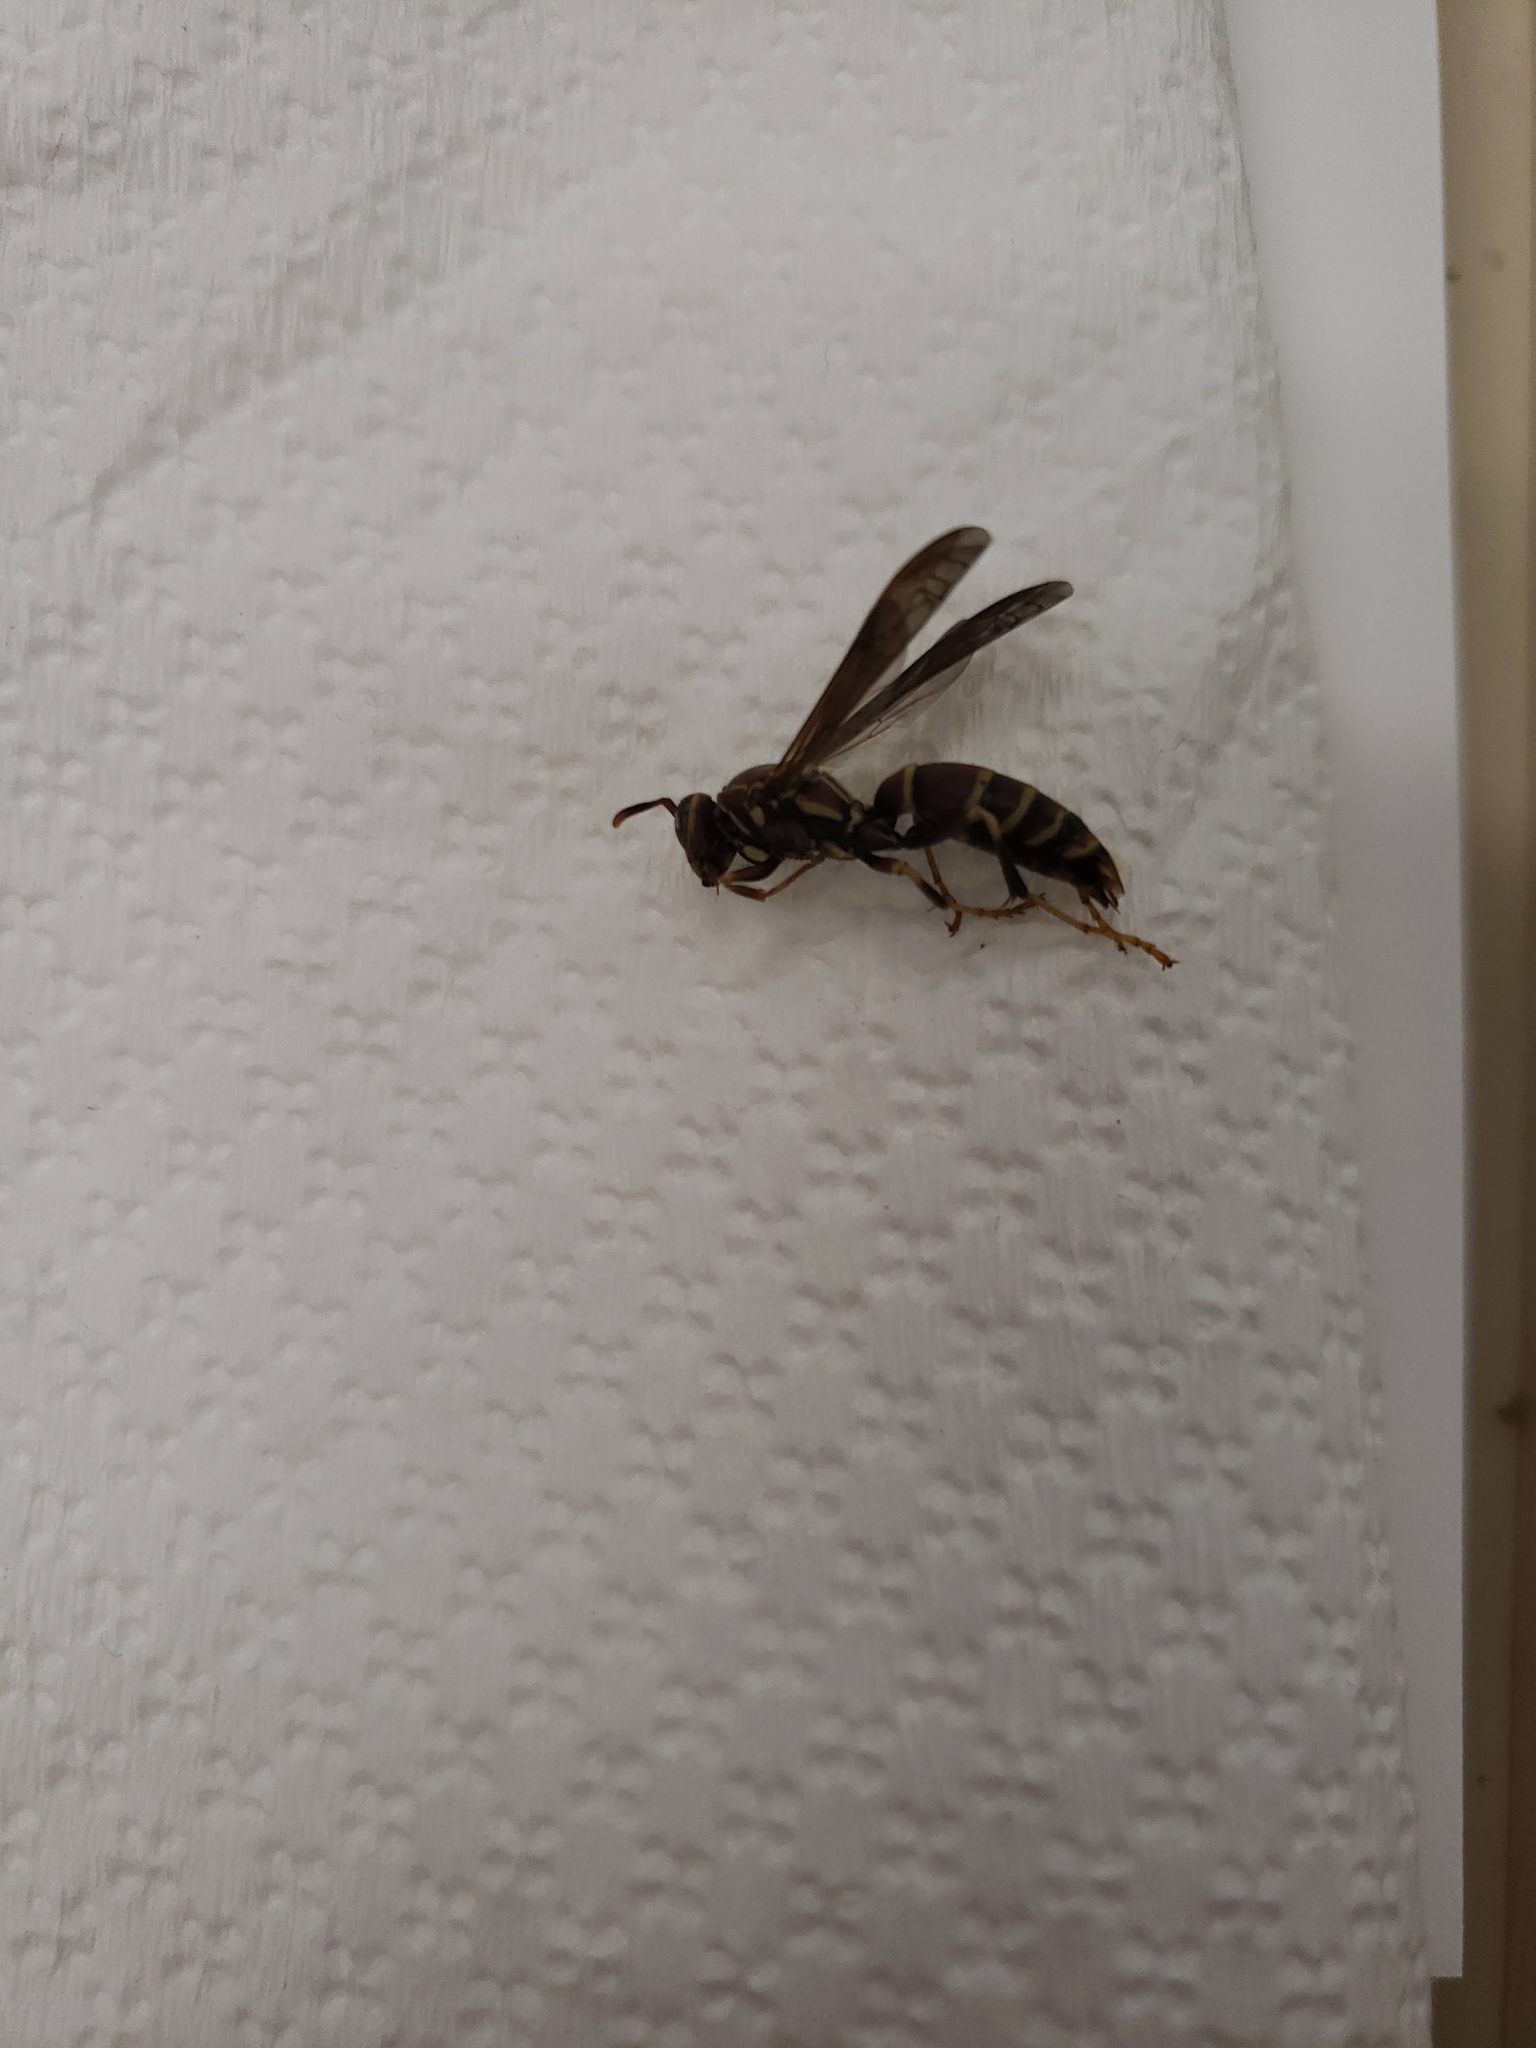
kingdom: Animalia
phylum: Arthropoda
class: Insecta
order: Hymenoptera
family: Eumenidae
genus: Polistes
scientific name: Polistes exclamans
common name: Paper wasp
